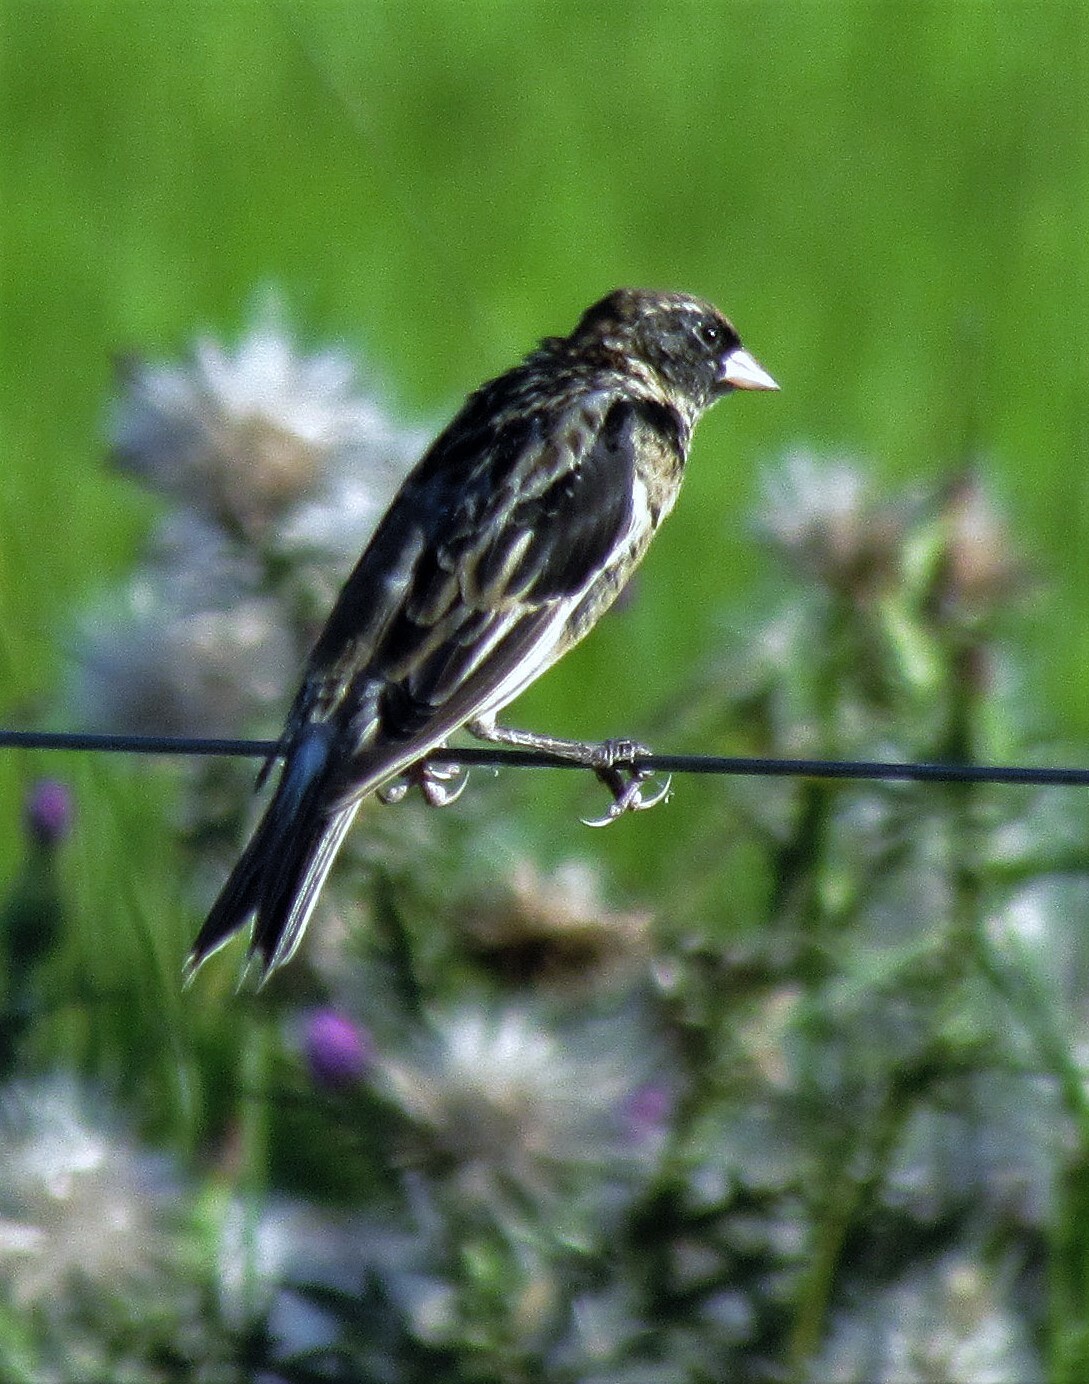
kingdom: Animalia
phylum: Chordata
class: Aves
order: Passeriformes
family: Icteridae
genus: Dolichonyx
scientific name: Dolichonyx oryzivorus
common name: Bobolink
